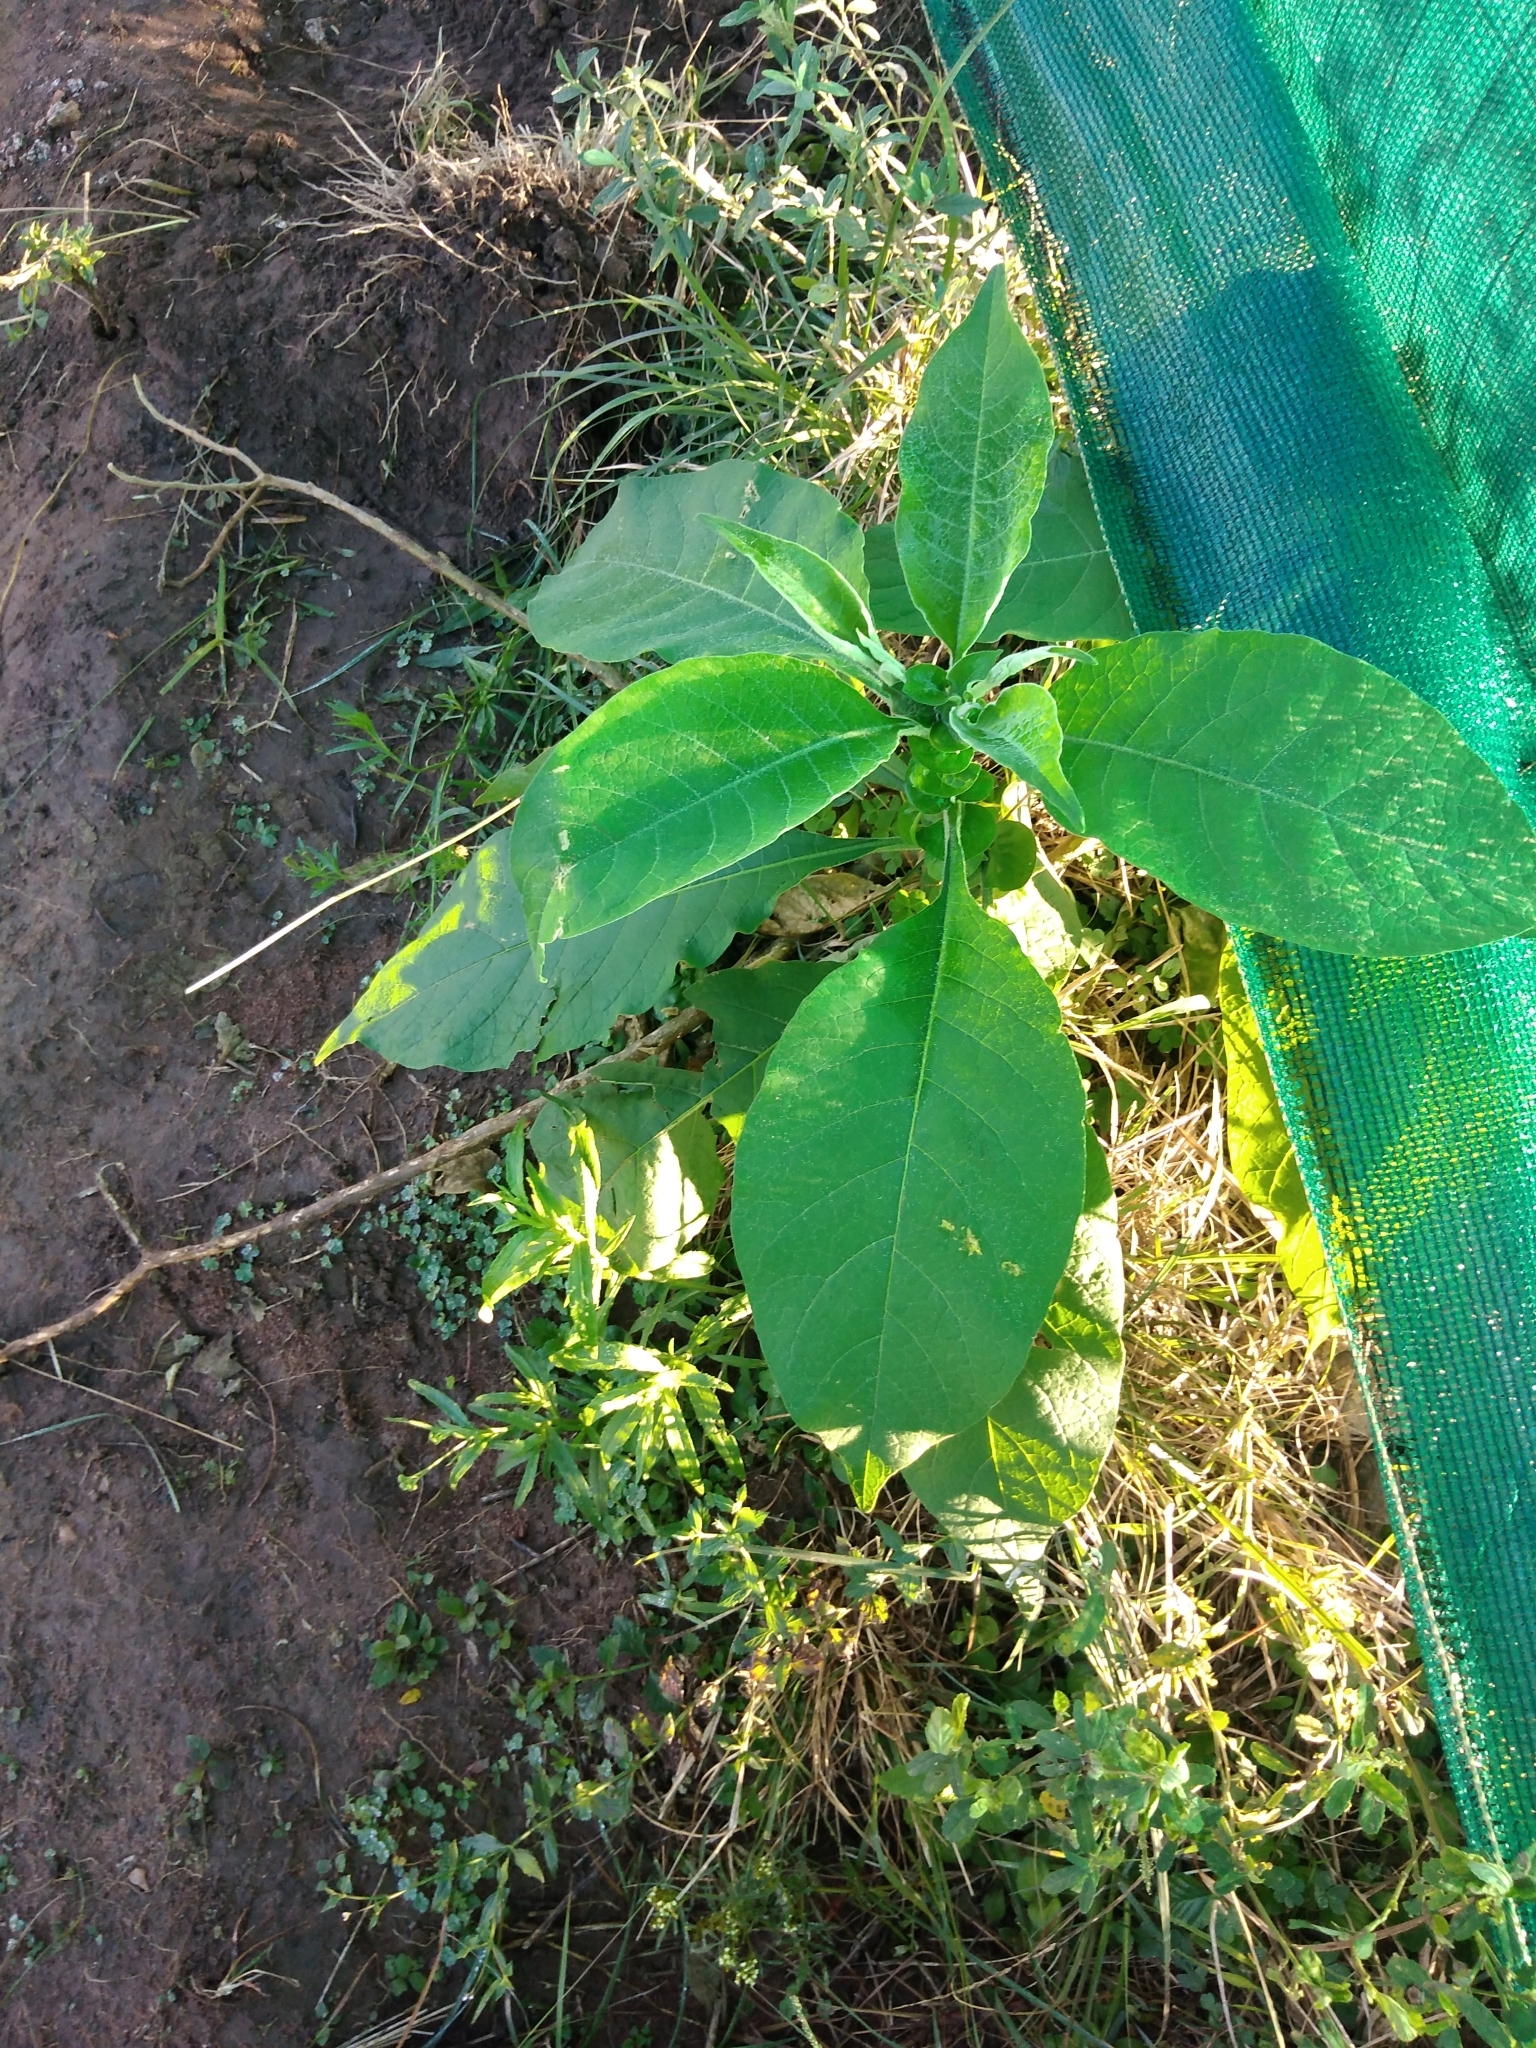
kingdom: Plantae
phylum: Tracheophyta
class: Magnoliopsida
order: Solanales
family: Solanaceae
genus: Solanum
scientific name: Solanum mauritianum
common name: Earleaf nightshade
